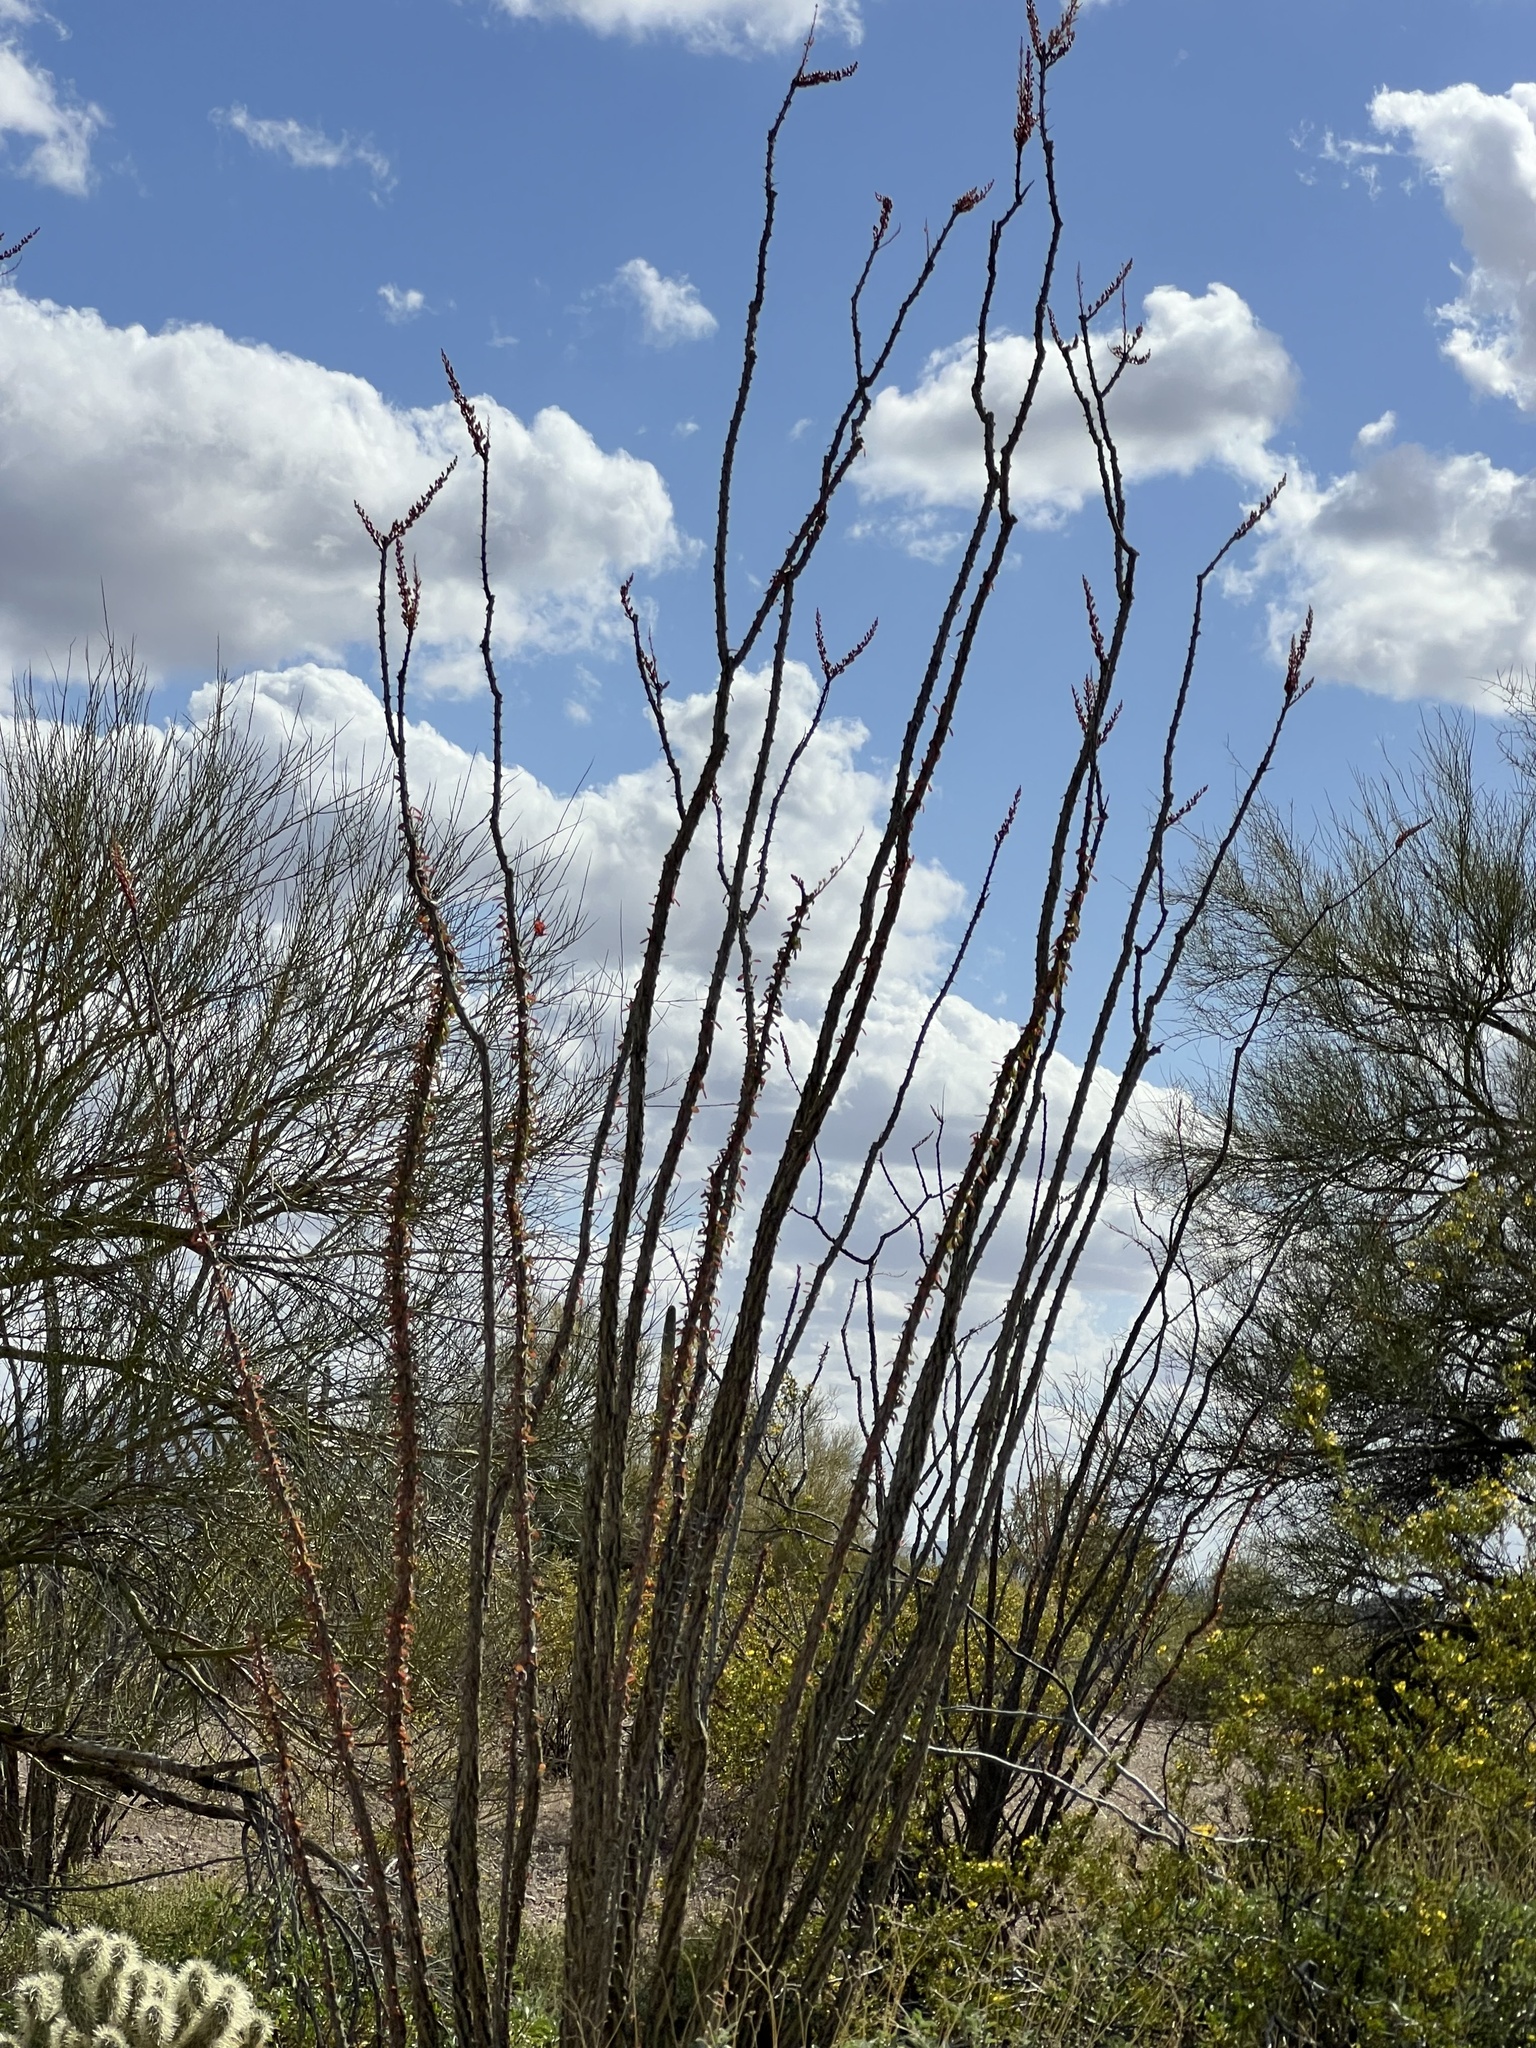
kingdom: Plantae
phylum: Tracheophyta
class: Magnoliopsida
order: Ericales
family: Fouquieriaceae
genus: Fouquieria
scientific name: Fouquieria splendens
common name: Vine-cactus
